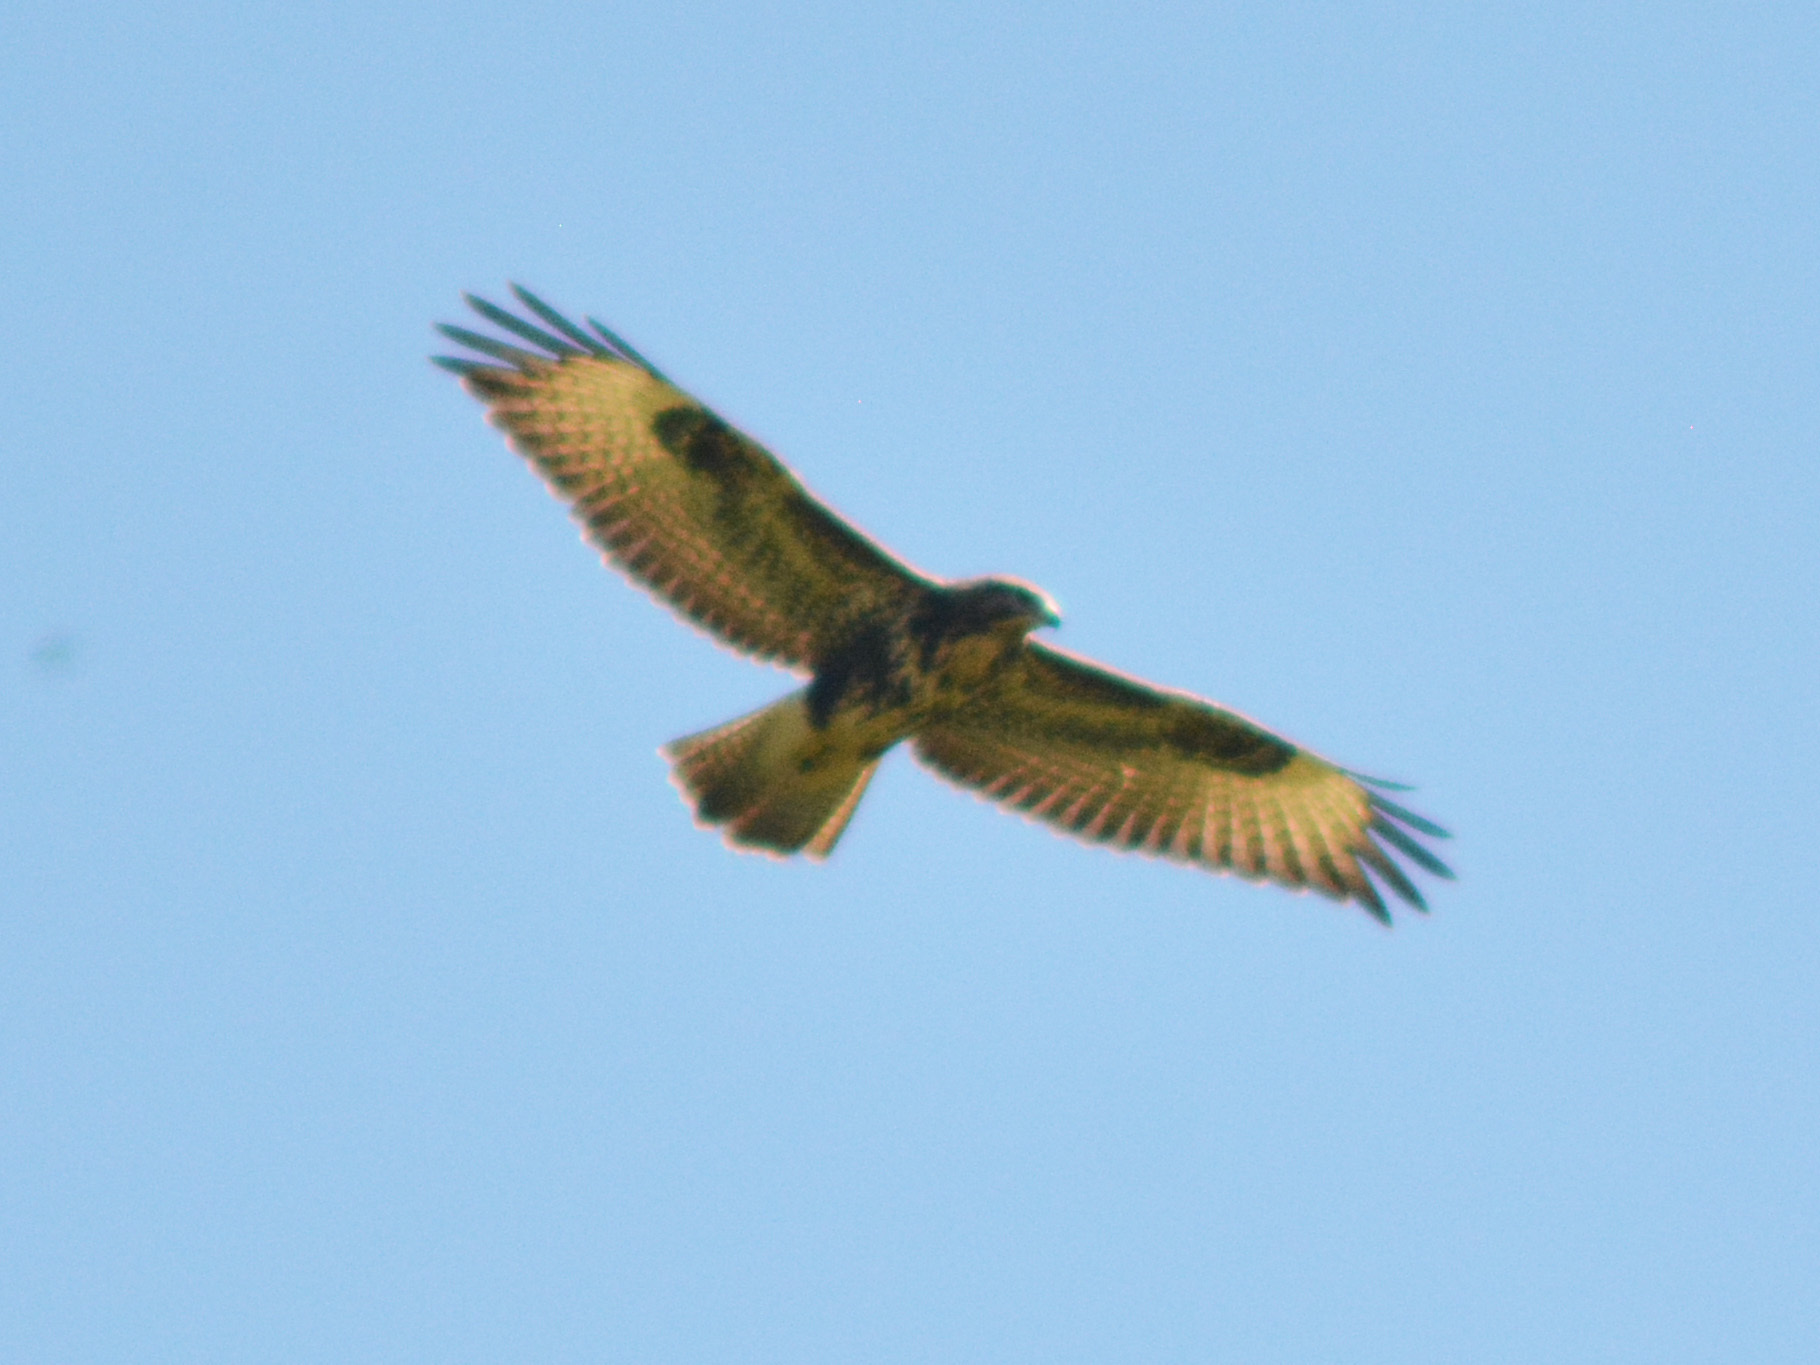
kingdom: Animalia
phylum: Chordata
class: Aves
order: Accipitriformes
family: Accipitridae
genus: Buteo
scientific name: Buteo buteo
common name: Common buzzard
